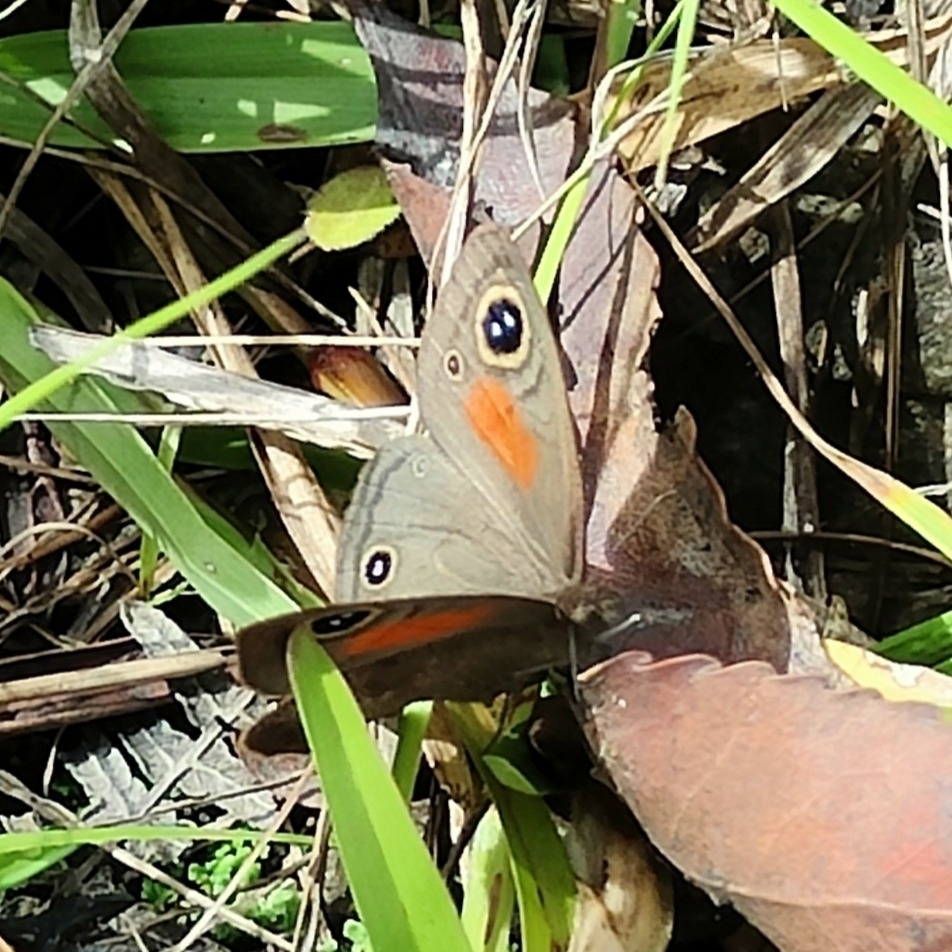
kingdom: Animalia
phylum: Arthropoda
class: Insecta
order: Lepidoptera
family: Nymphalidae
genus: Cassionympha
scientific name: Cassionympha cassius
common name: Rainforest brown
